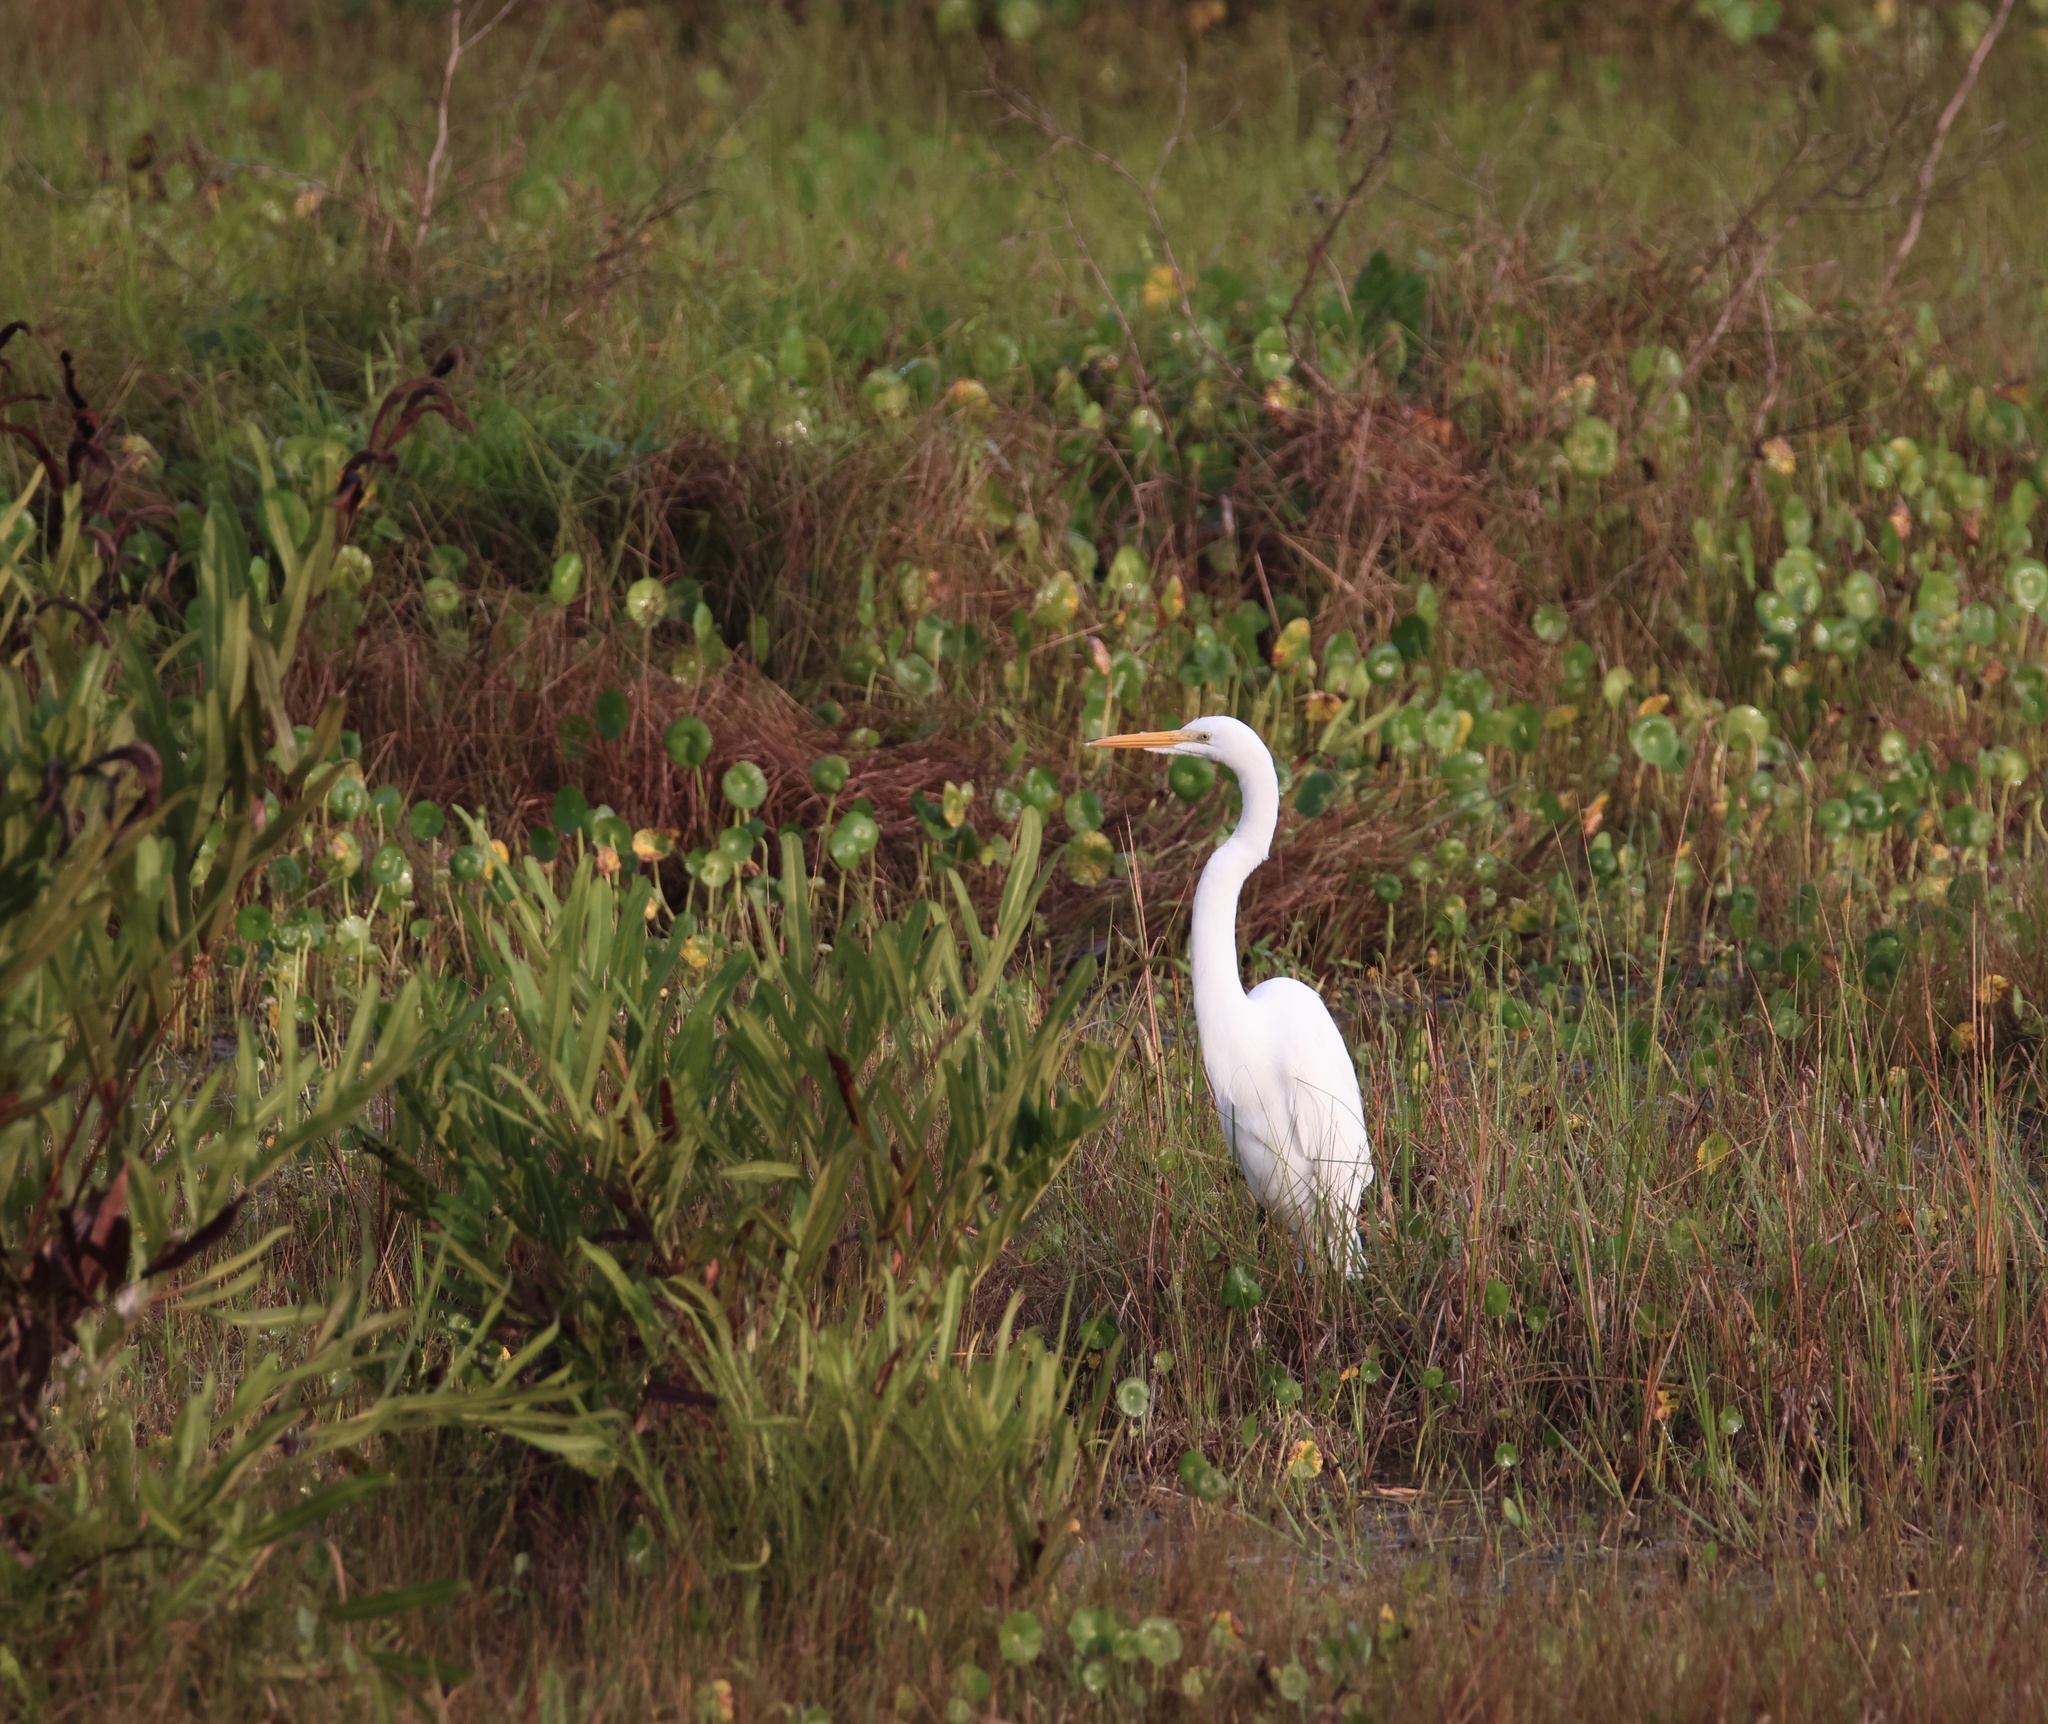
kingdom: Animalia
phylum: Chordata
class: Aves
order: Pelecaniformes
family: Ardeidae
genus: Ardea
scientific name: Ardea alba
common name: Great egret
